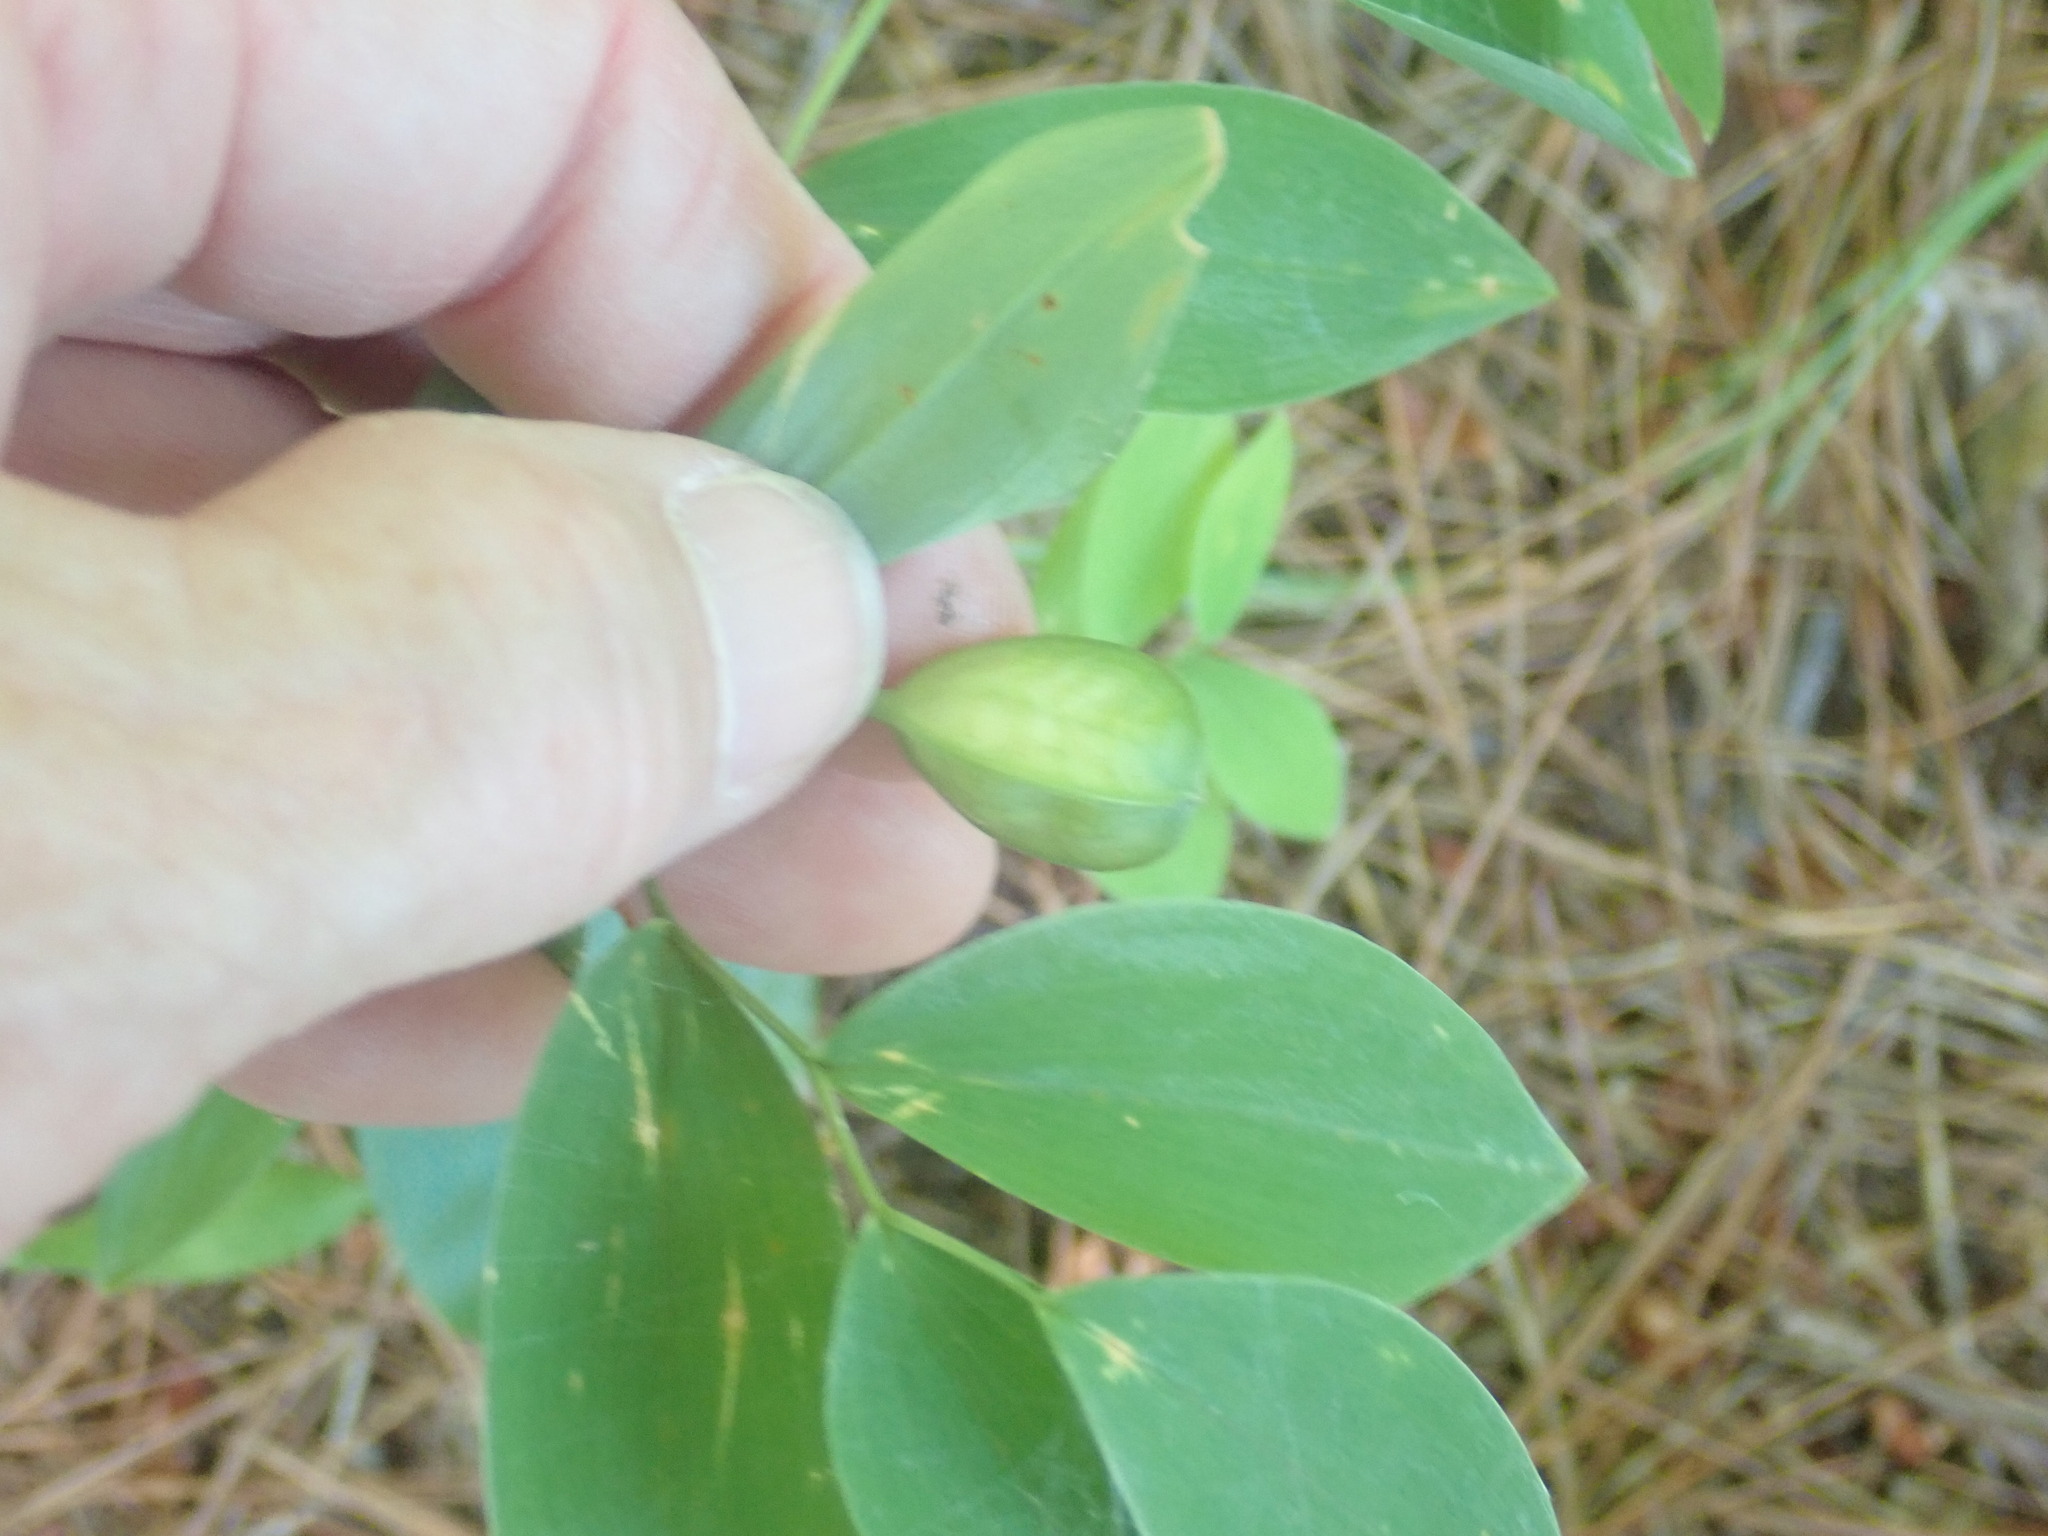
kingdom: Plantae
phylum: Tracheophyta
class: Liliopsida
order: Liliales
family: Colchicaceae
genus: Uvularia
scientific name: Uvularia sessilifolia
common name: Straw-lily
